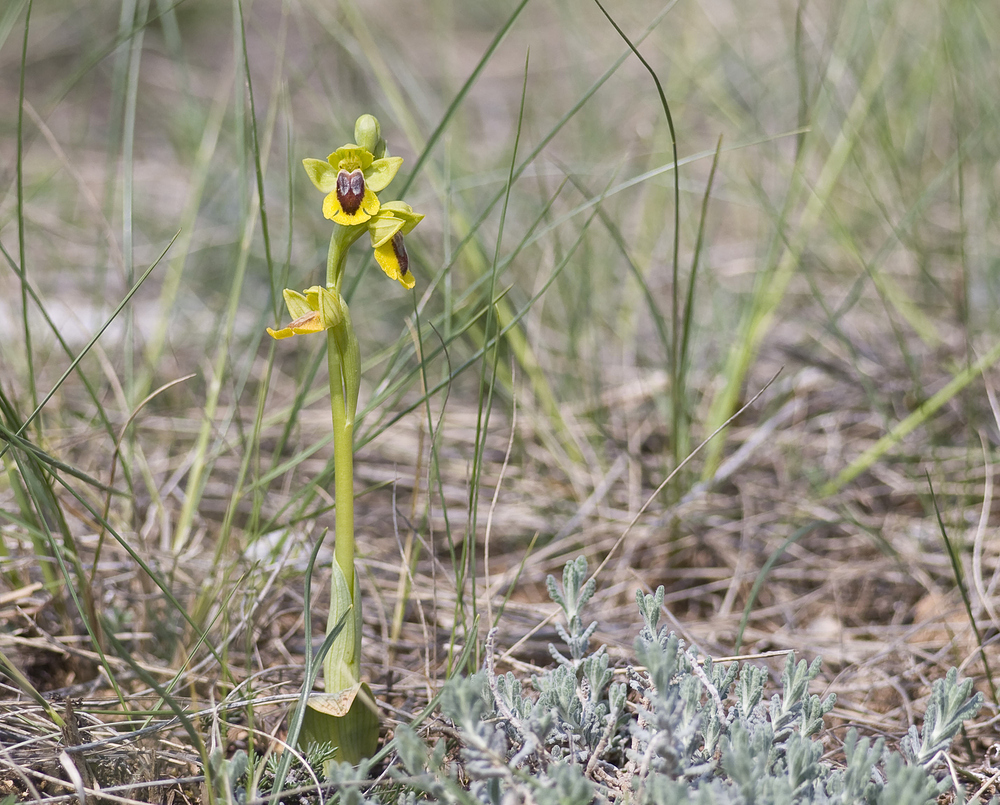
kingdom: Plantae
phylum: Tracheophyta
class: Liliopsida
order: Asparagales
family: Orchidaceae
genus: Ophrys
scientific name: Ophrys lutea
